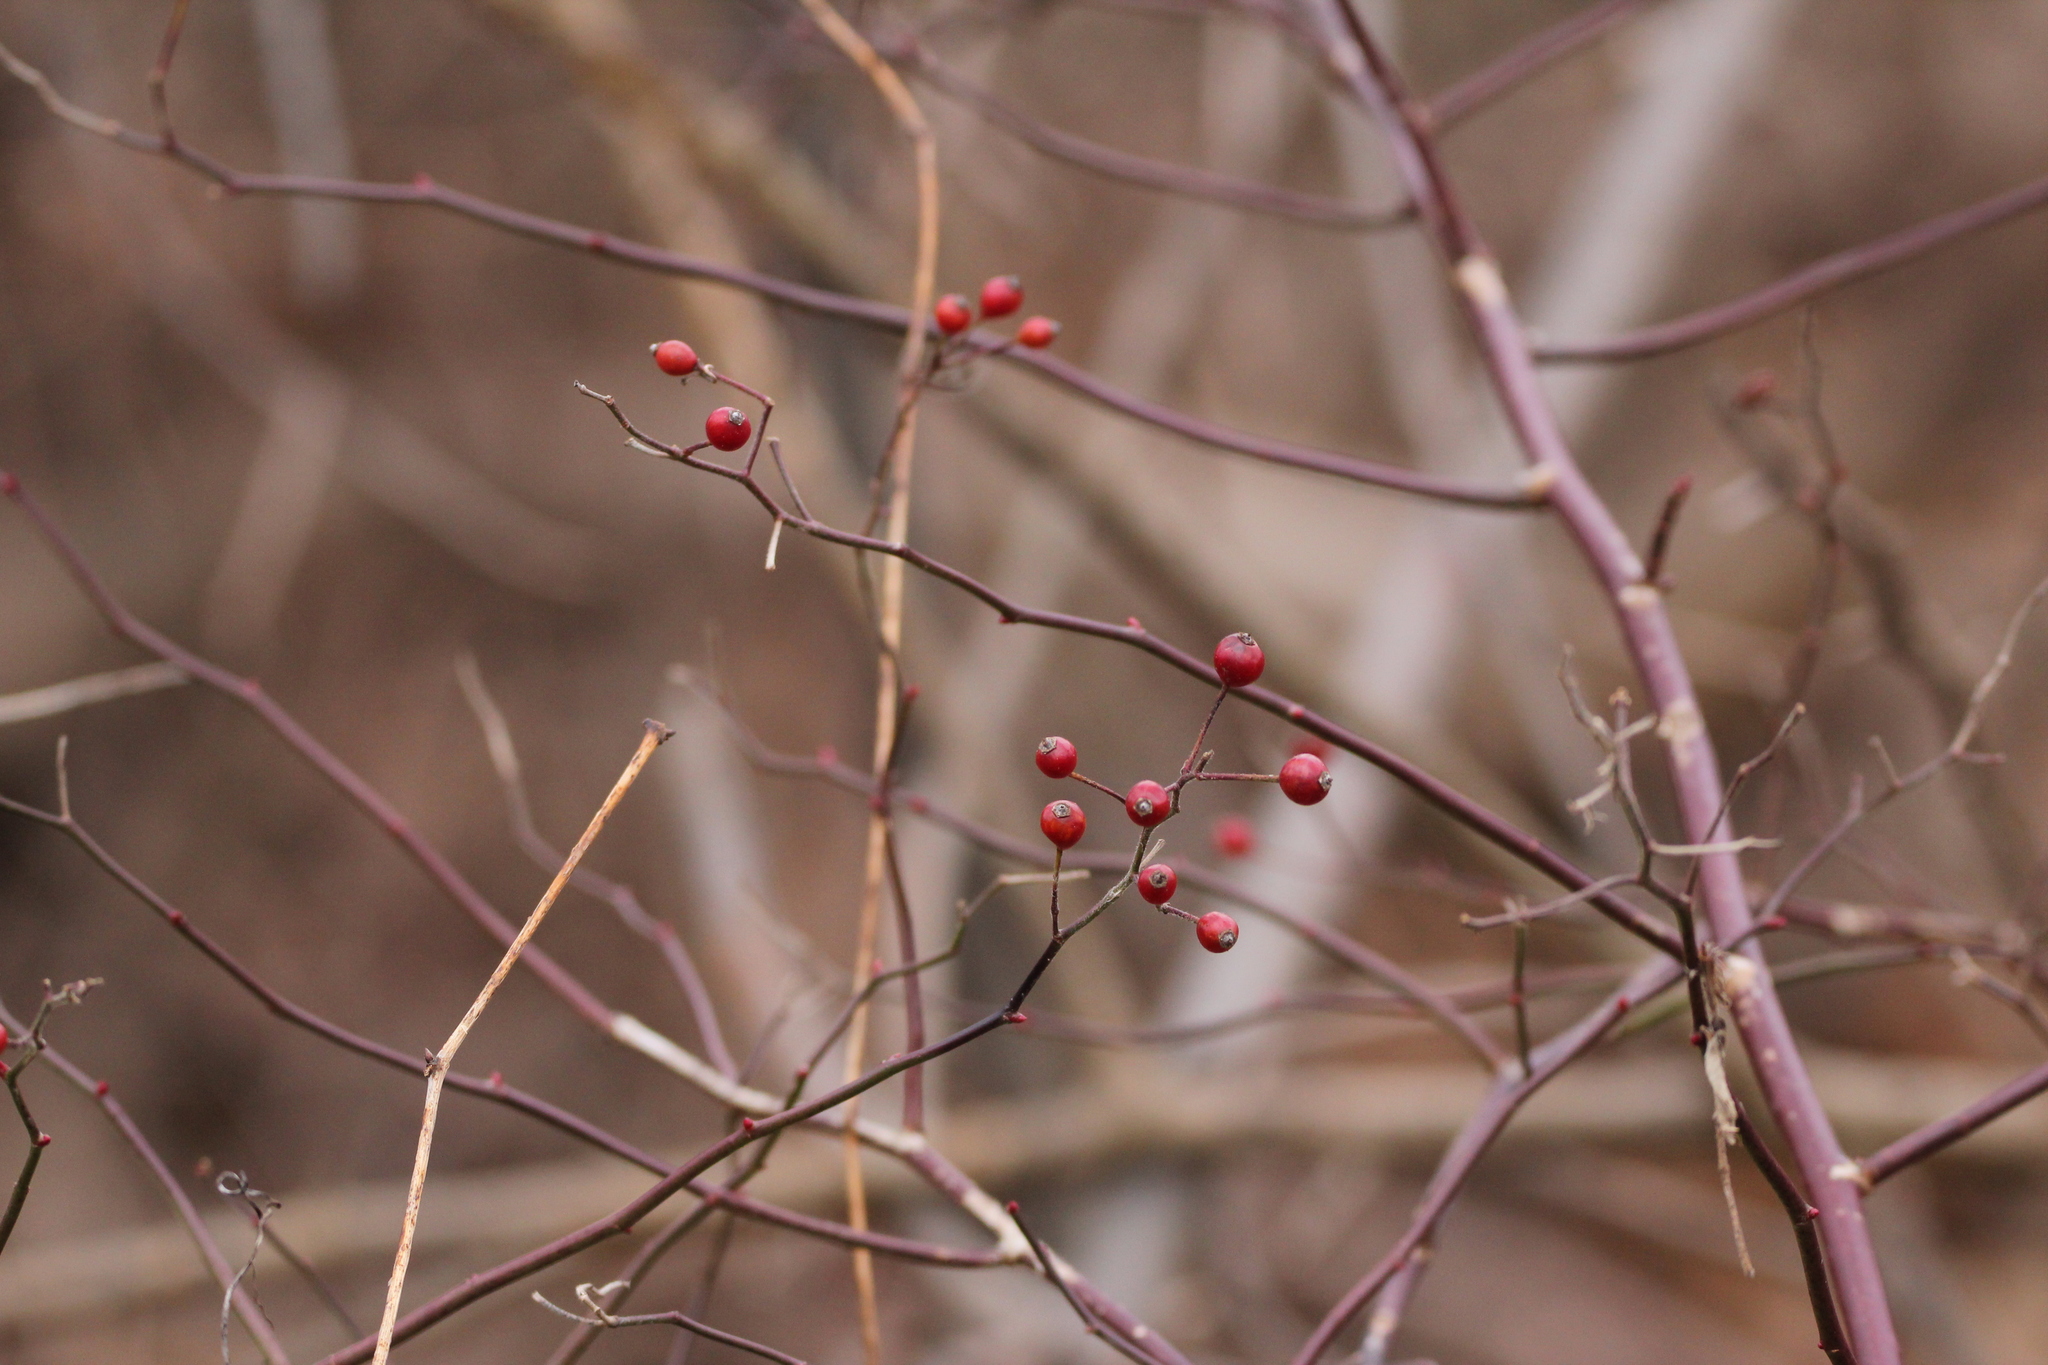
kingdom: Plantae
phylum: Tracheophyta
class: Magnoliopsida
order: Rosales
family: Rosaceae
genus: Rosa
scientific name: Rosa multiflora
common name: Multiflora rose
